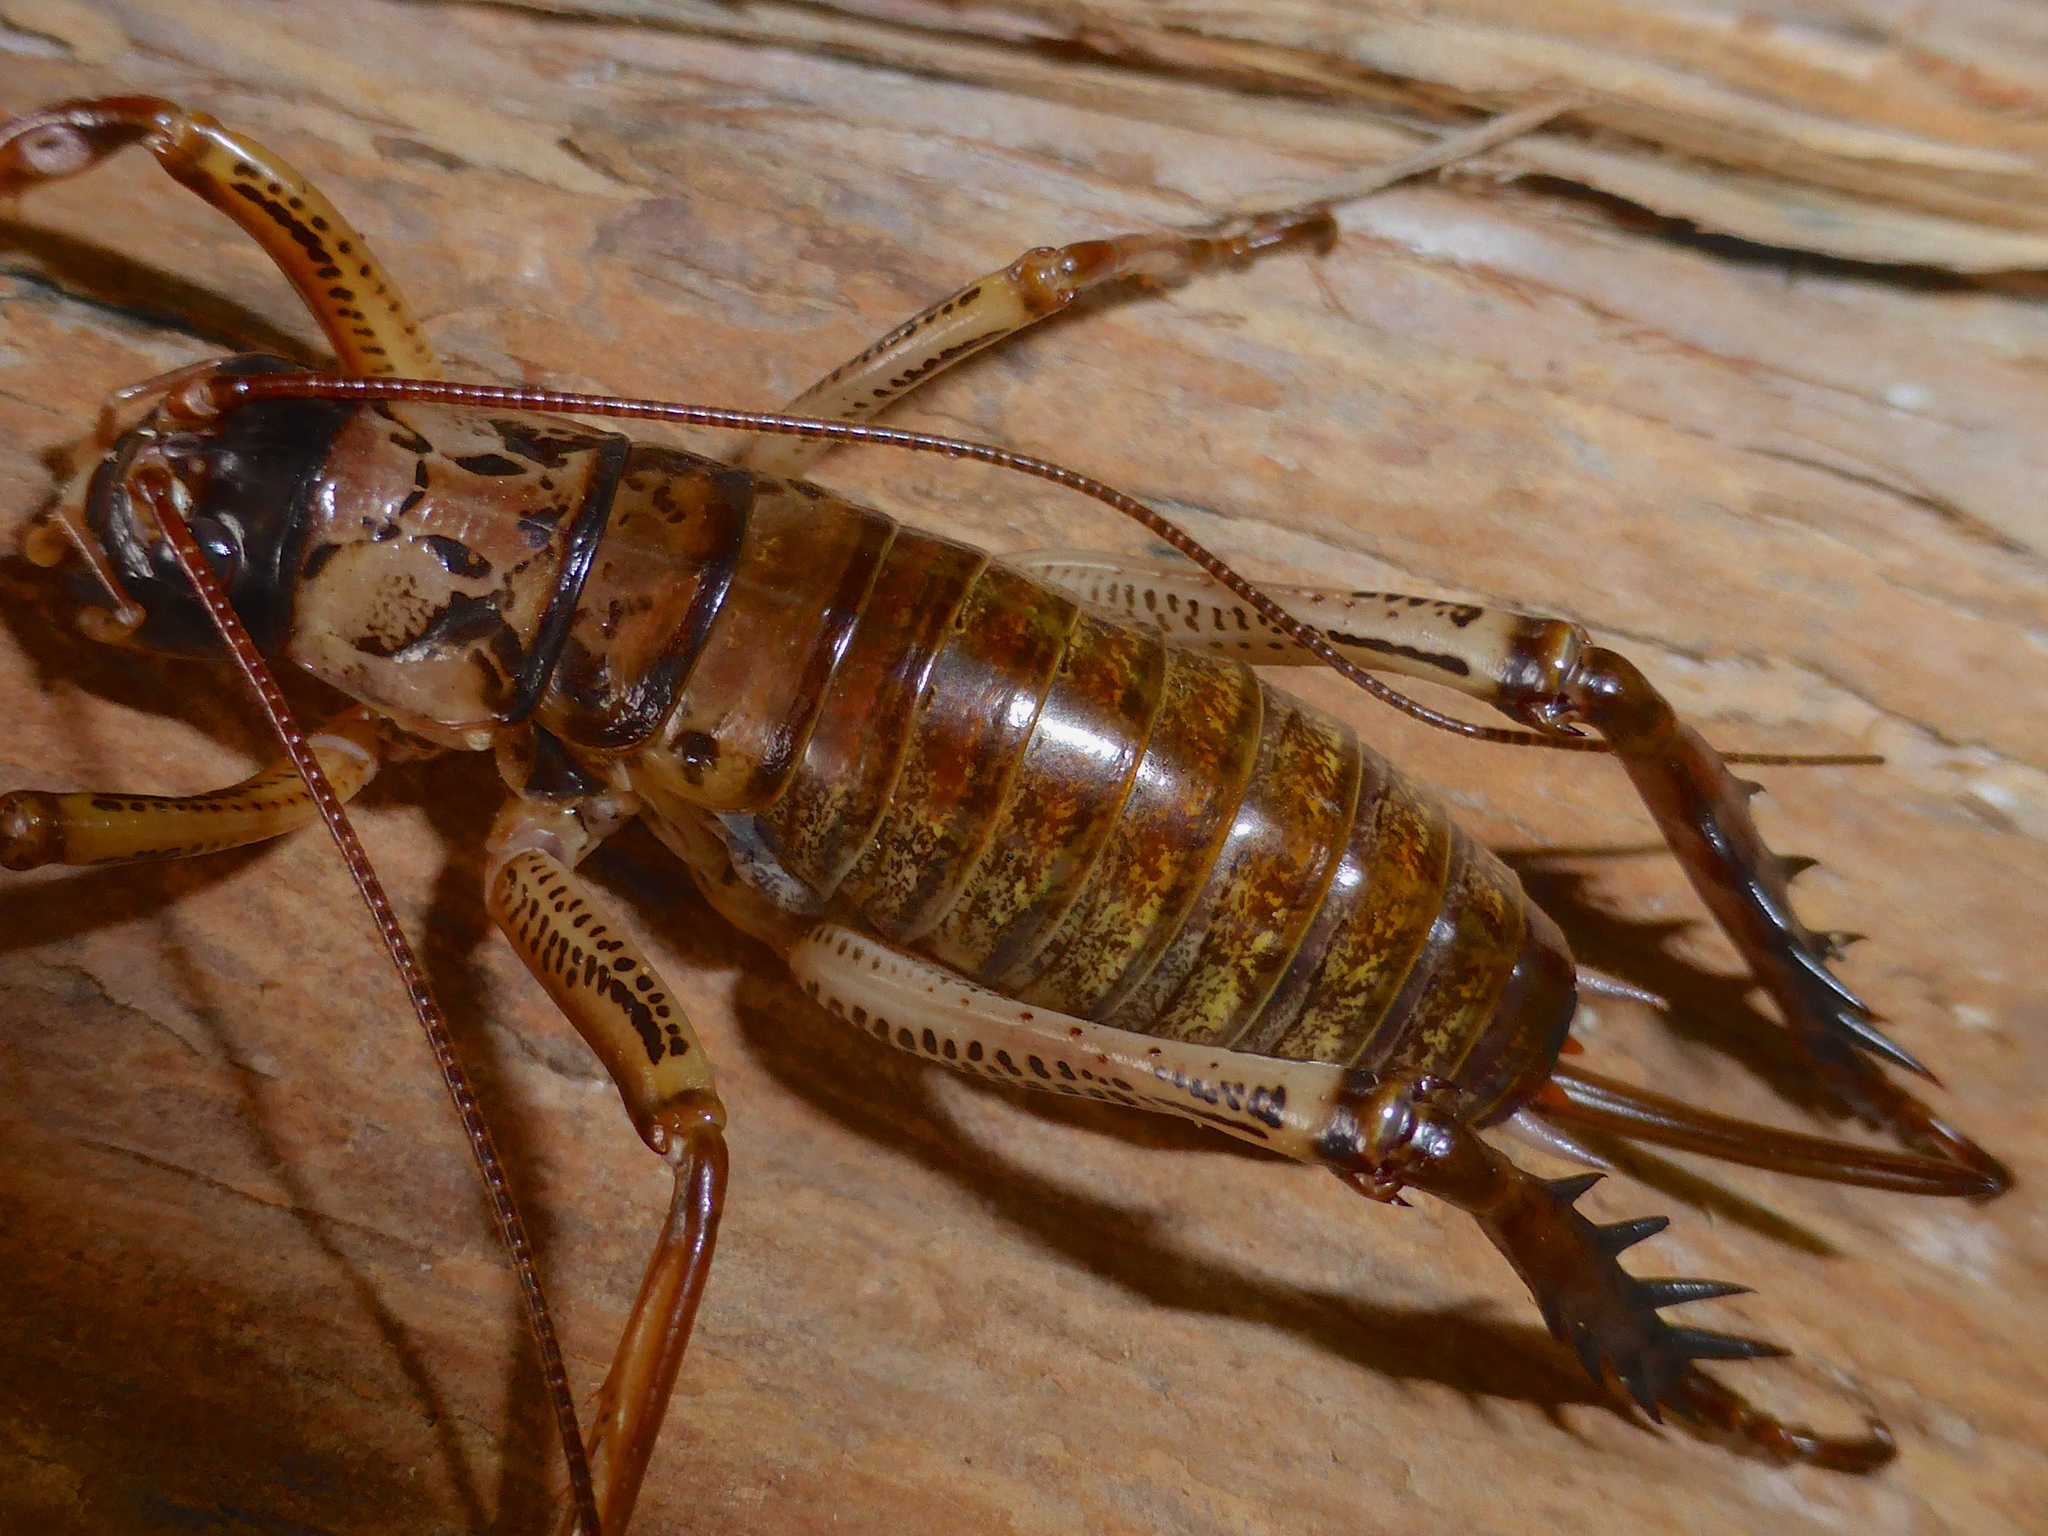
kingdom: Animalia
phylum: Arthropoda
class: Insecta
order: Orthoptera
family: Anostostomatidae
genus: Hemideina
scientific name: Hemideina thoracica
